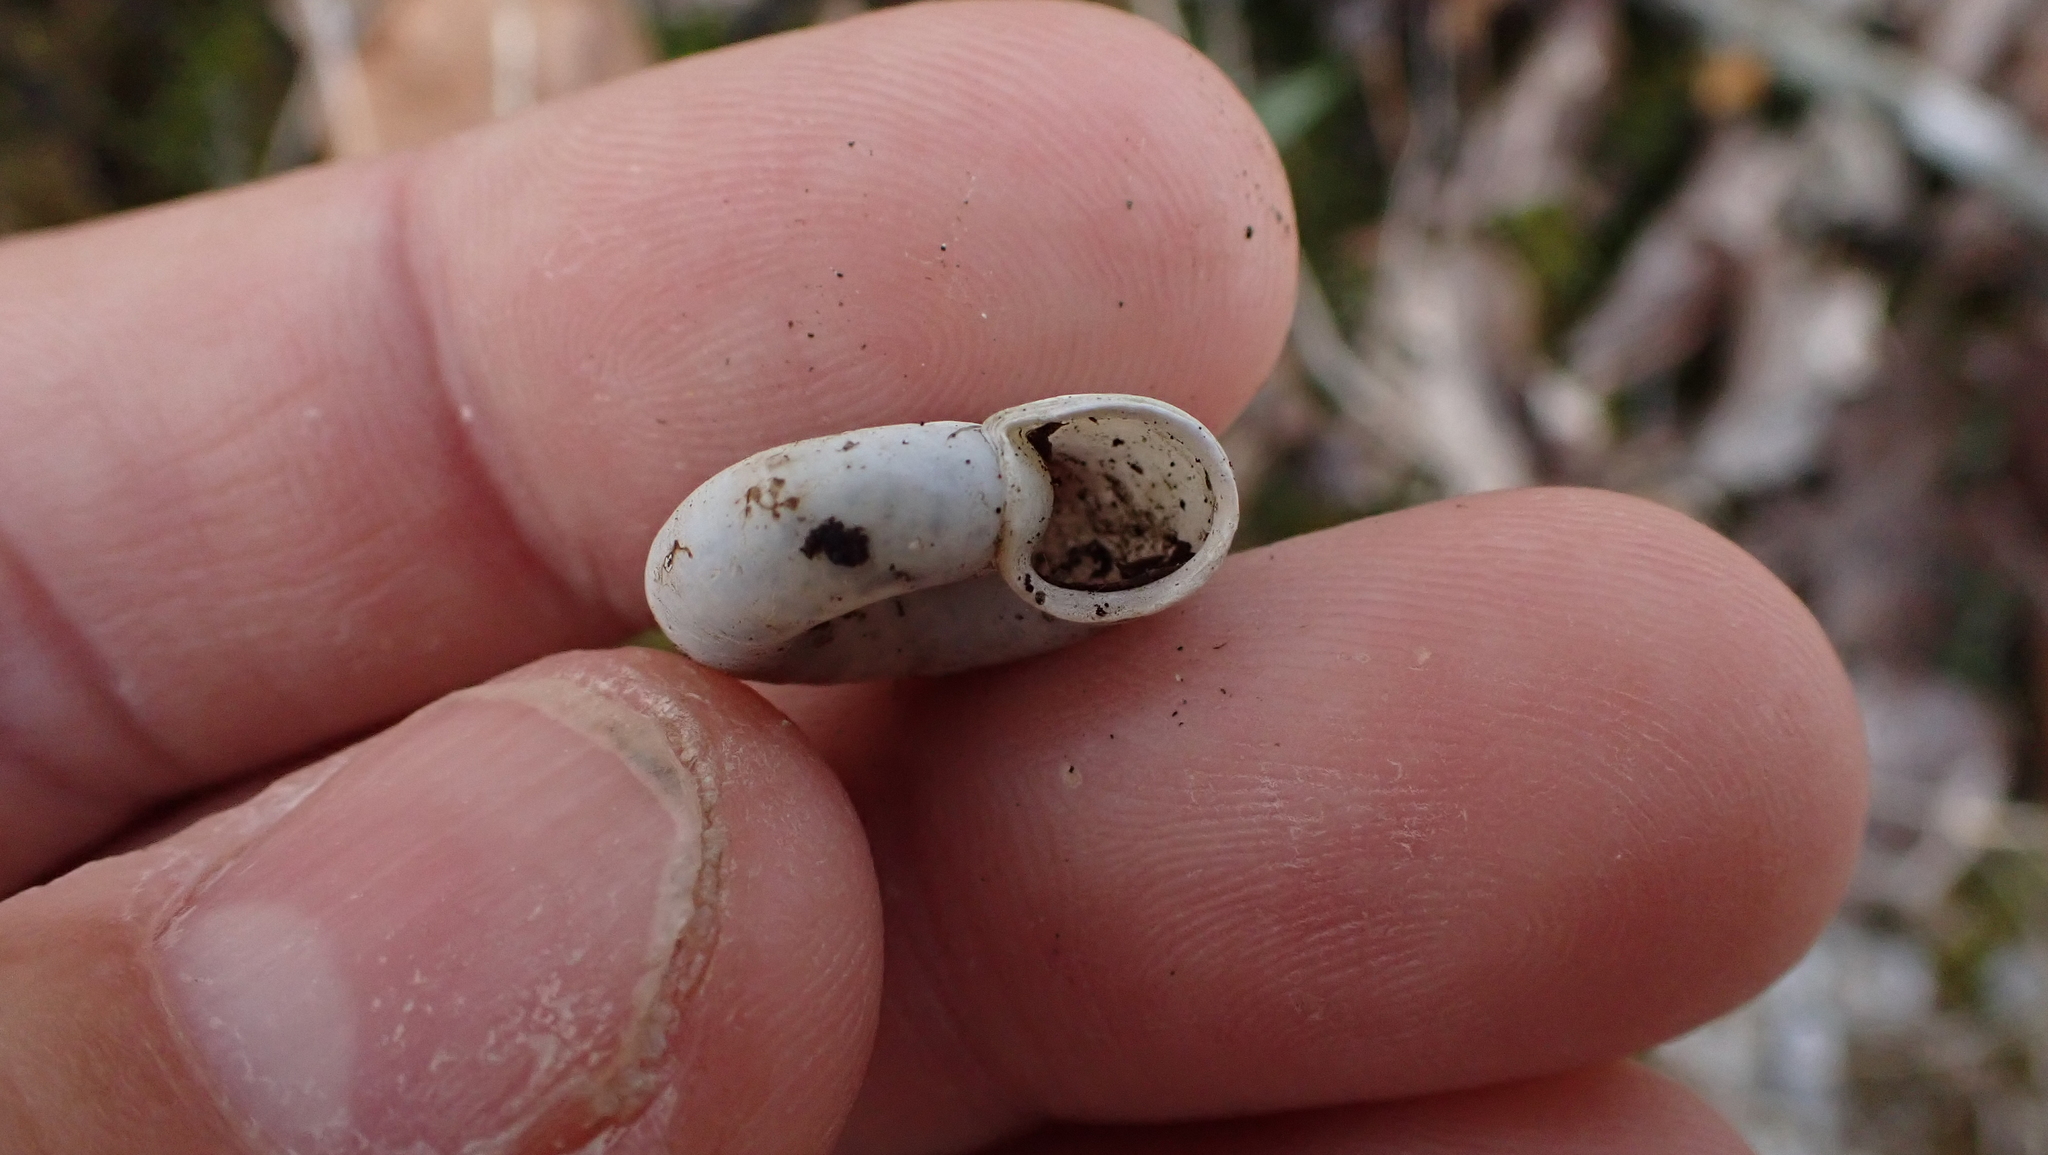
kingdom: Animalia
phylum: Mollusca
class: Gastropoda
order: Stylommatophora
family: Haplotrematidae
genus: Haplotrema
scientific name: Haplotrema concavum
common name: Gray-foot lancetooth
